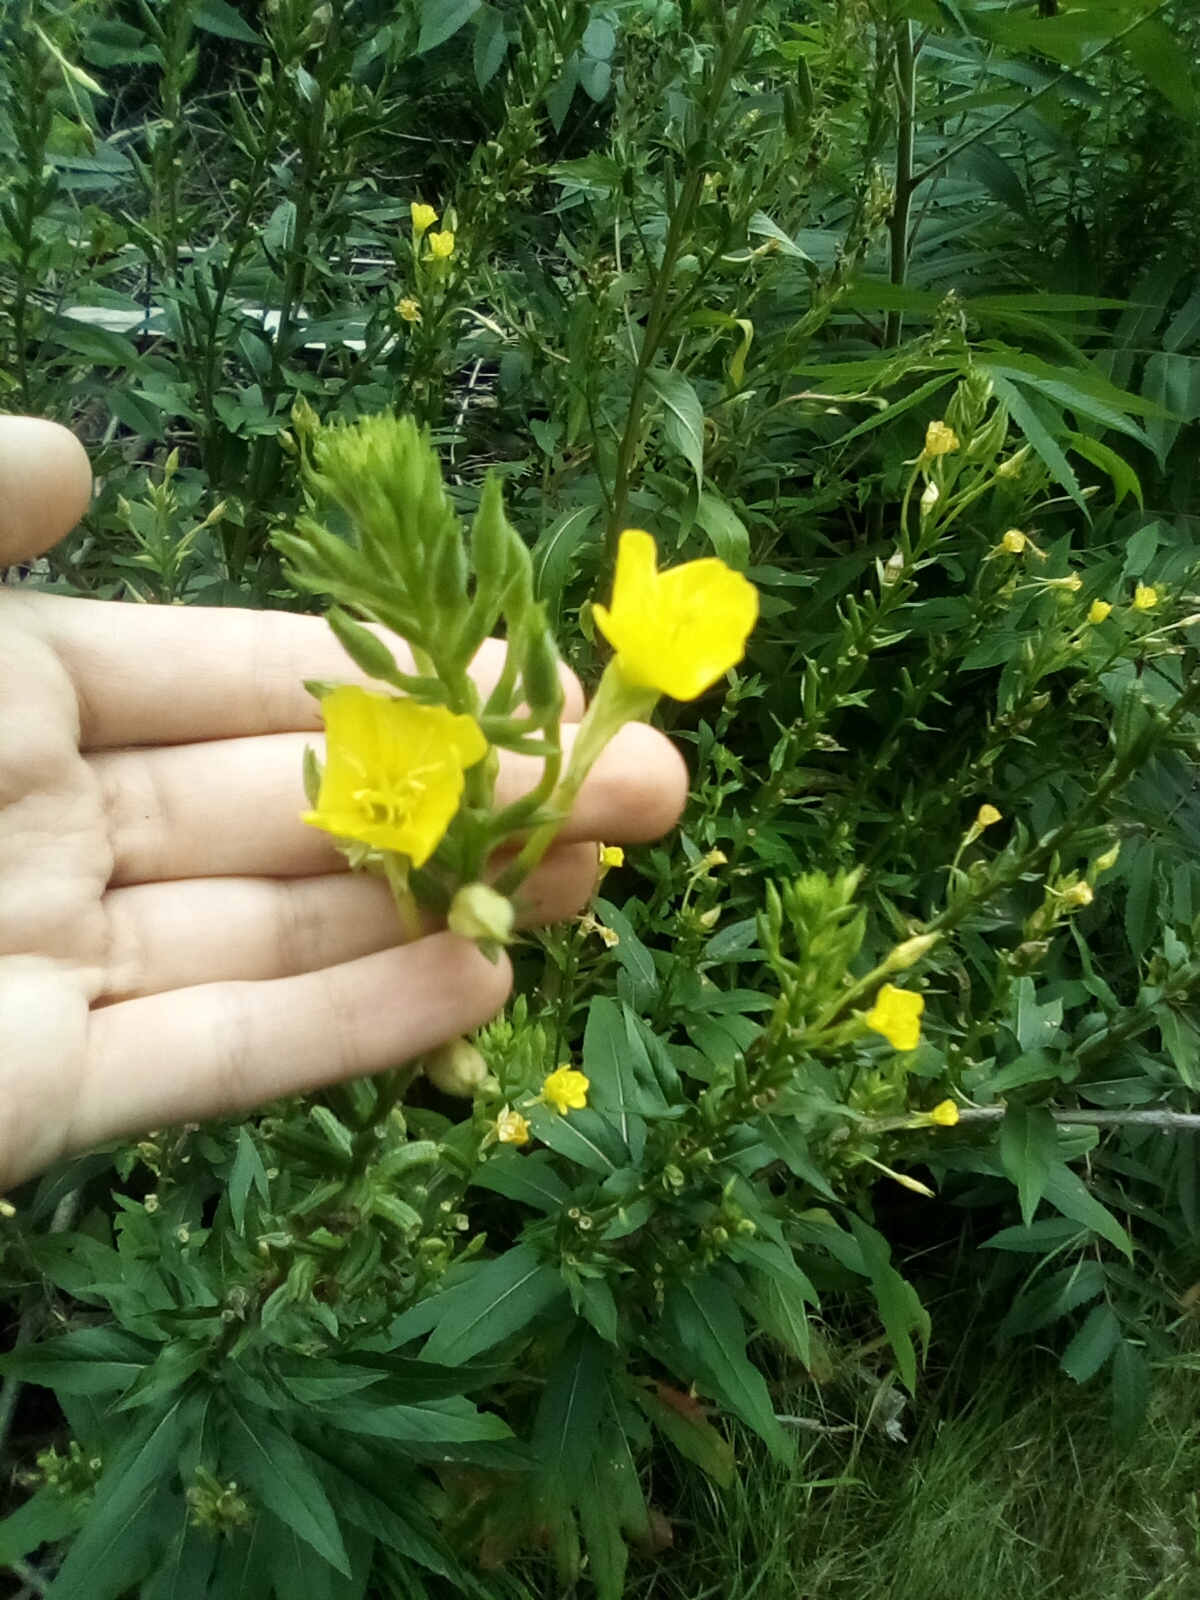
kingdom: Plantae
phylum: Tracheophyta
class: Magnoliopsida
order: Myrtales
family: Onagraceae
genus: Oenothera
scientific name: Oenothera biennis
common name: Common evening-primrose
